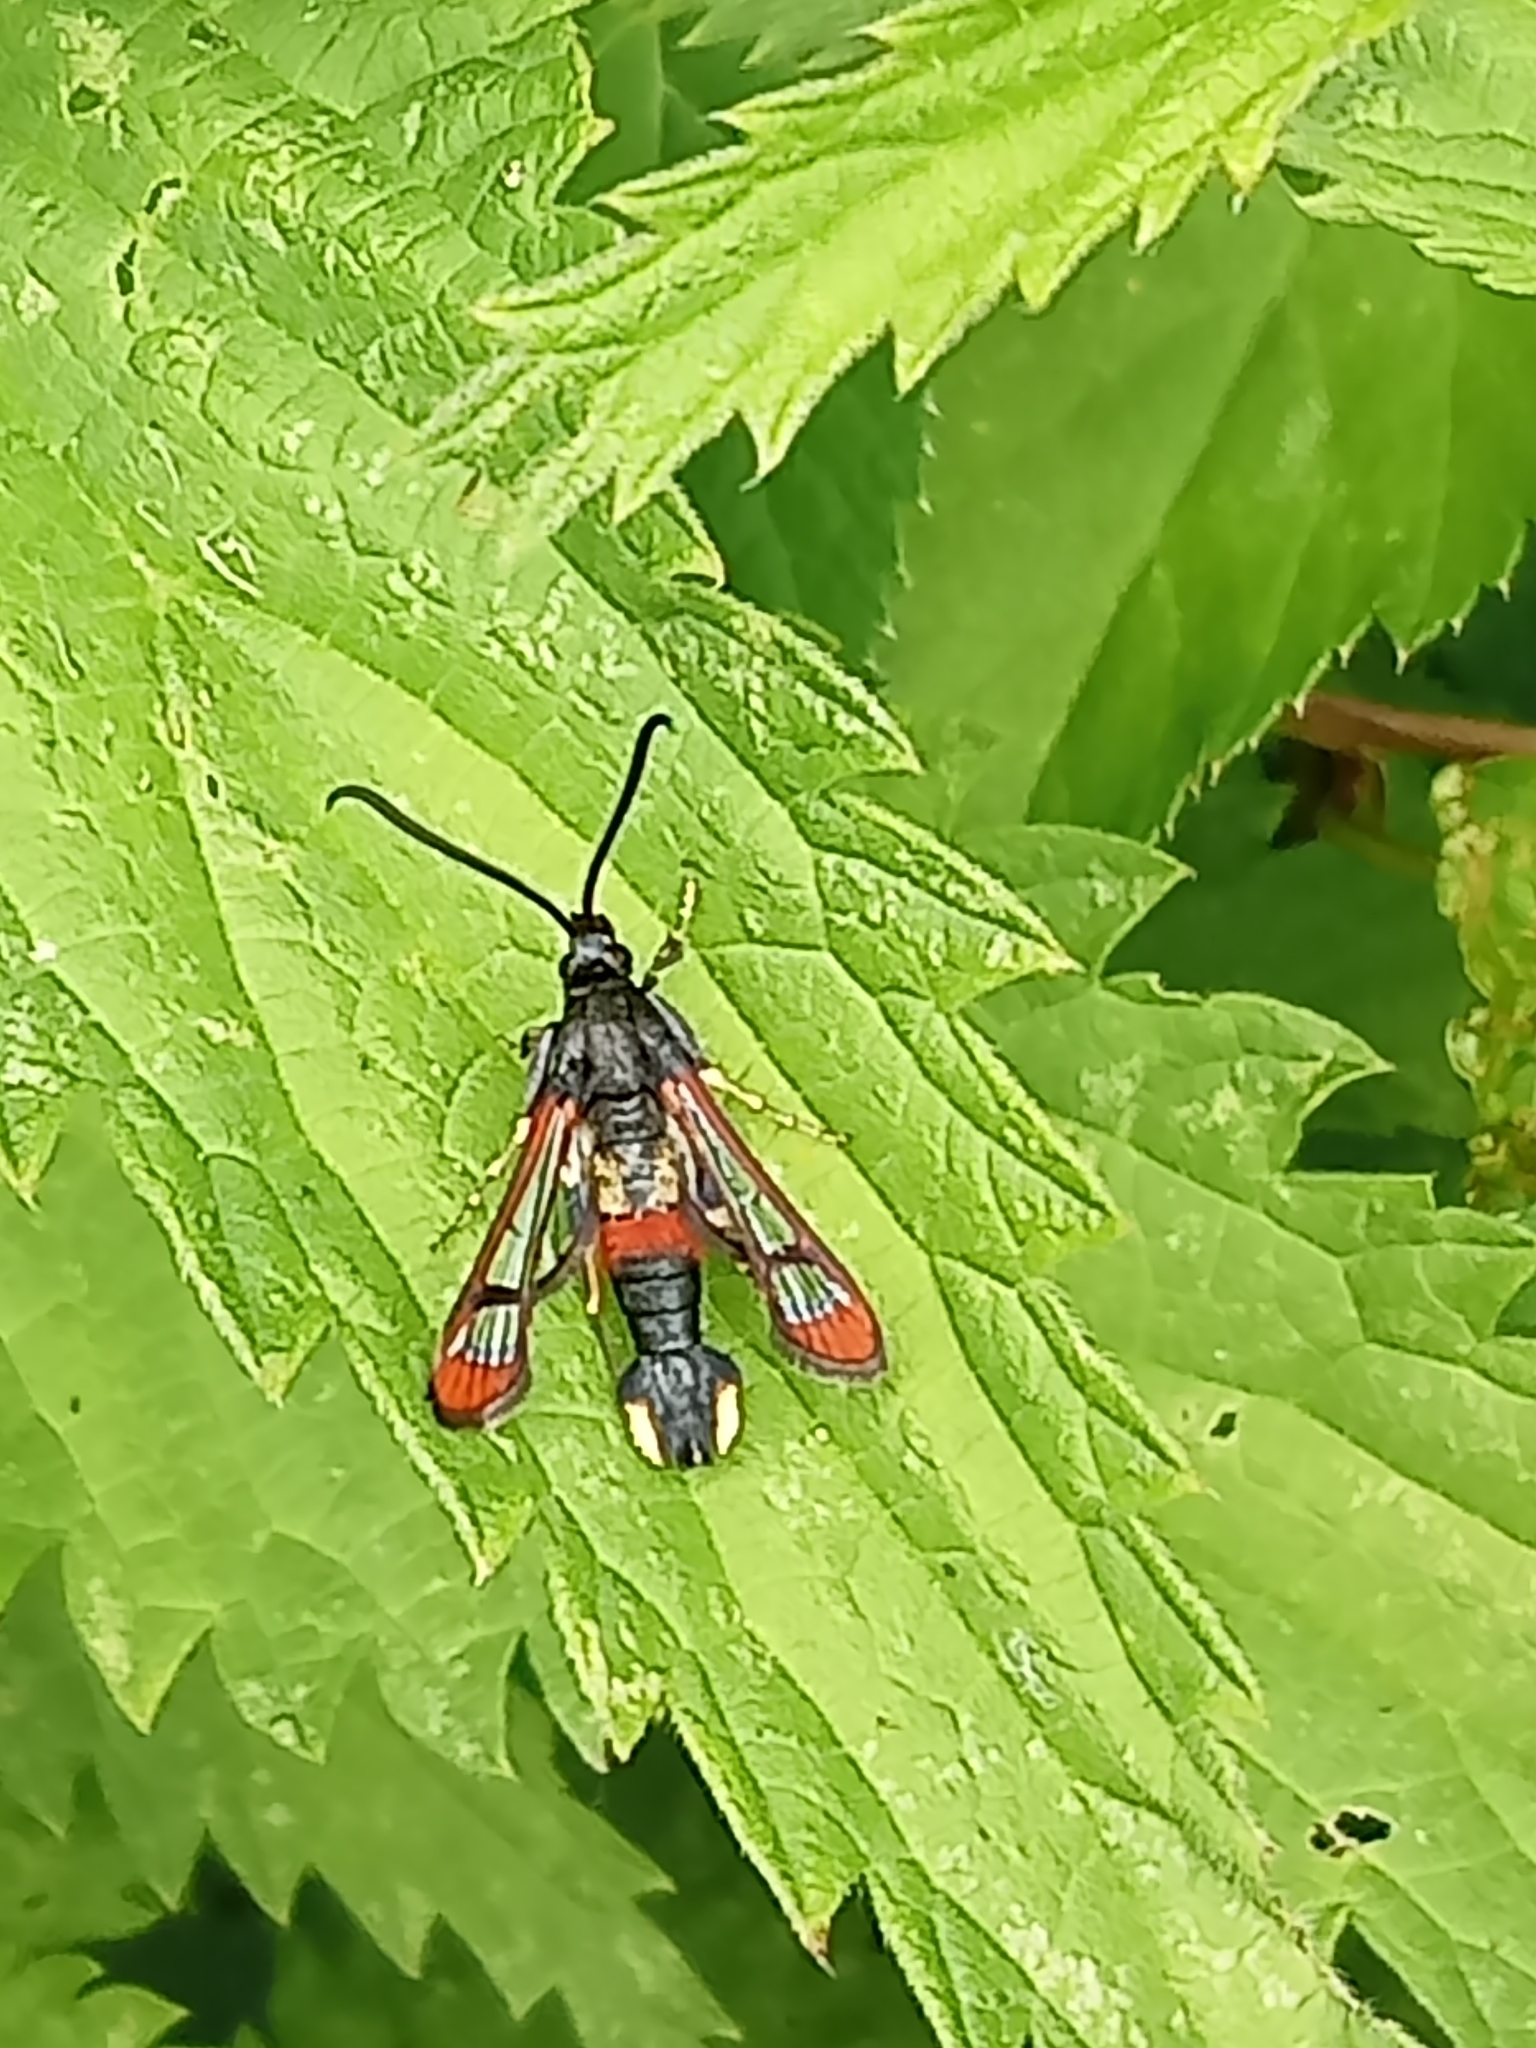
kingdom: Animalia
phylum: Arthropoda
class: Insecta
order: Lepidoptera
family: Sesiidae
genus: Synanthedon
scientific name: Synanthedon formicaeformis
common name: Red-tipped clearwing
